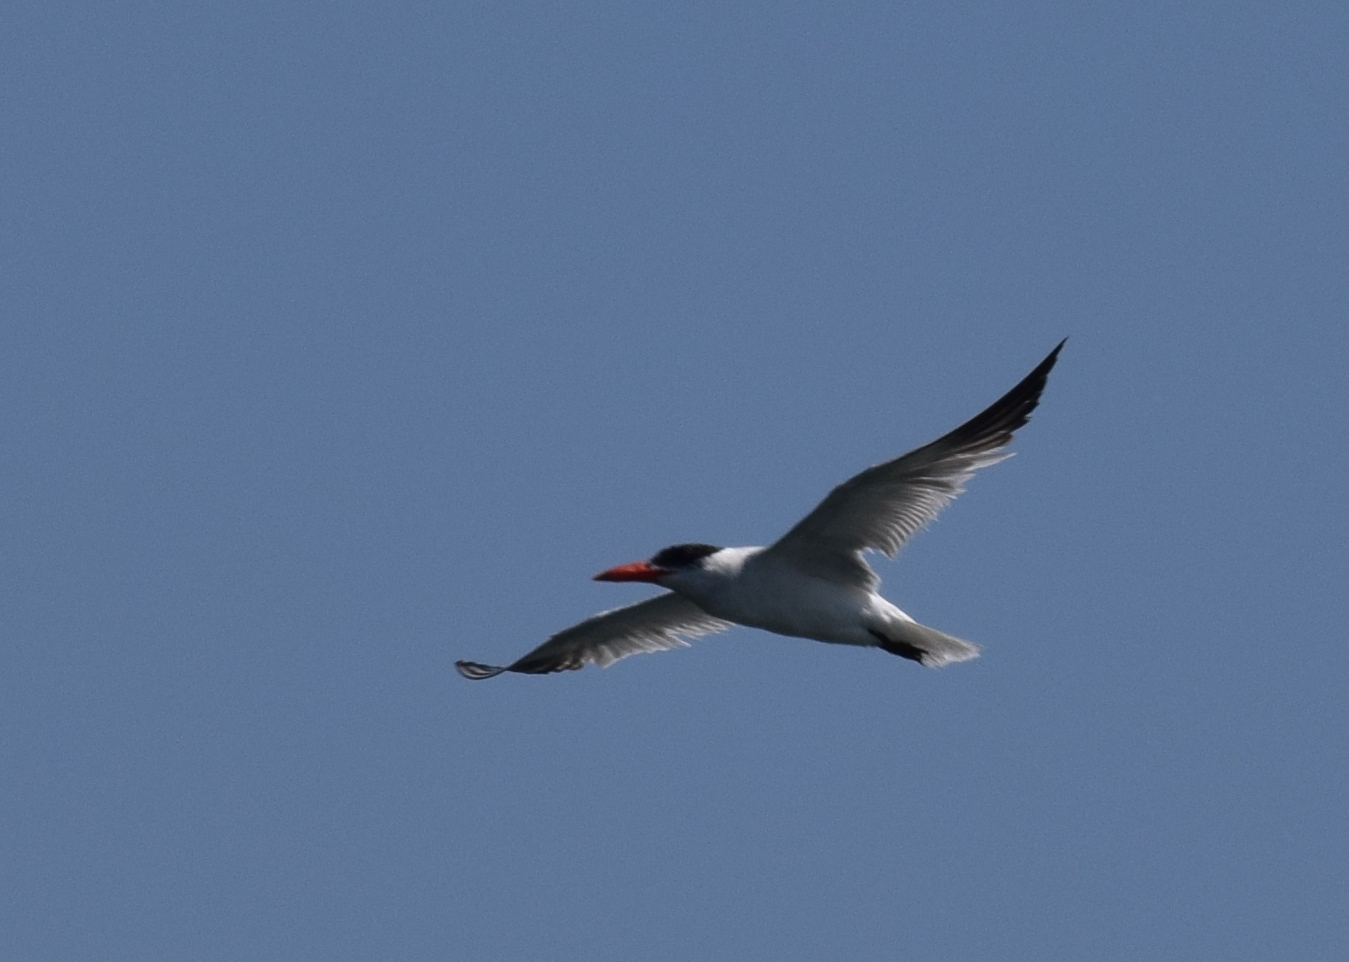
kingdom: Animalia
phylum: Chordata
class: Aves
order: Charadriiformes
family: Laridae
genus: Hydroprogne
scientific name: Hydroprogne caspia
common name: Caspian tern
